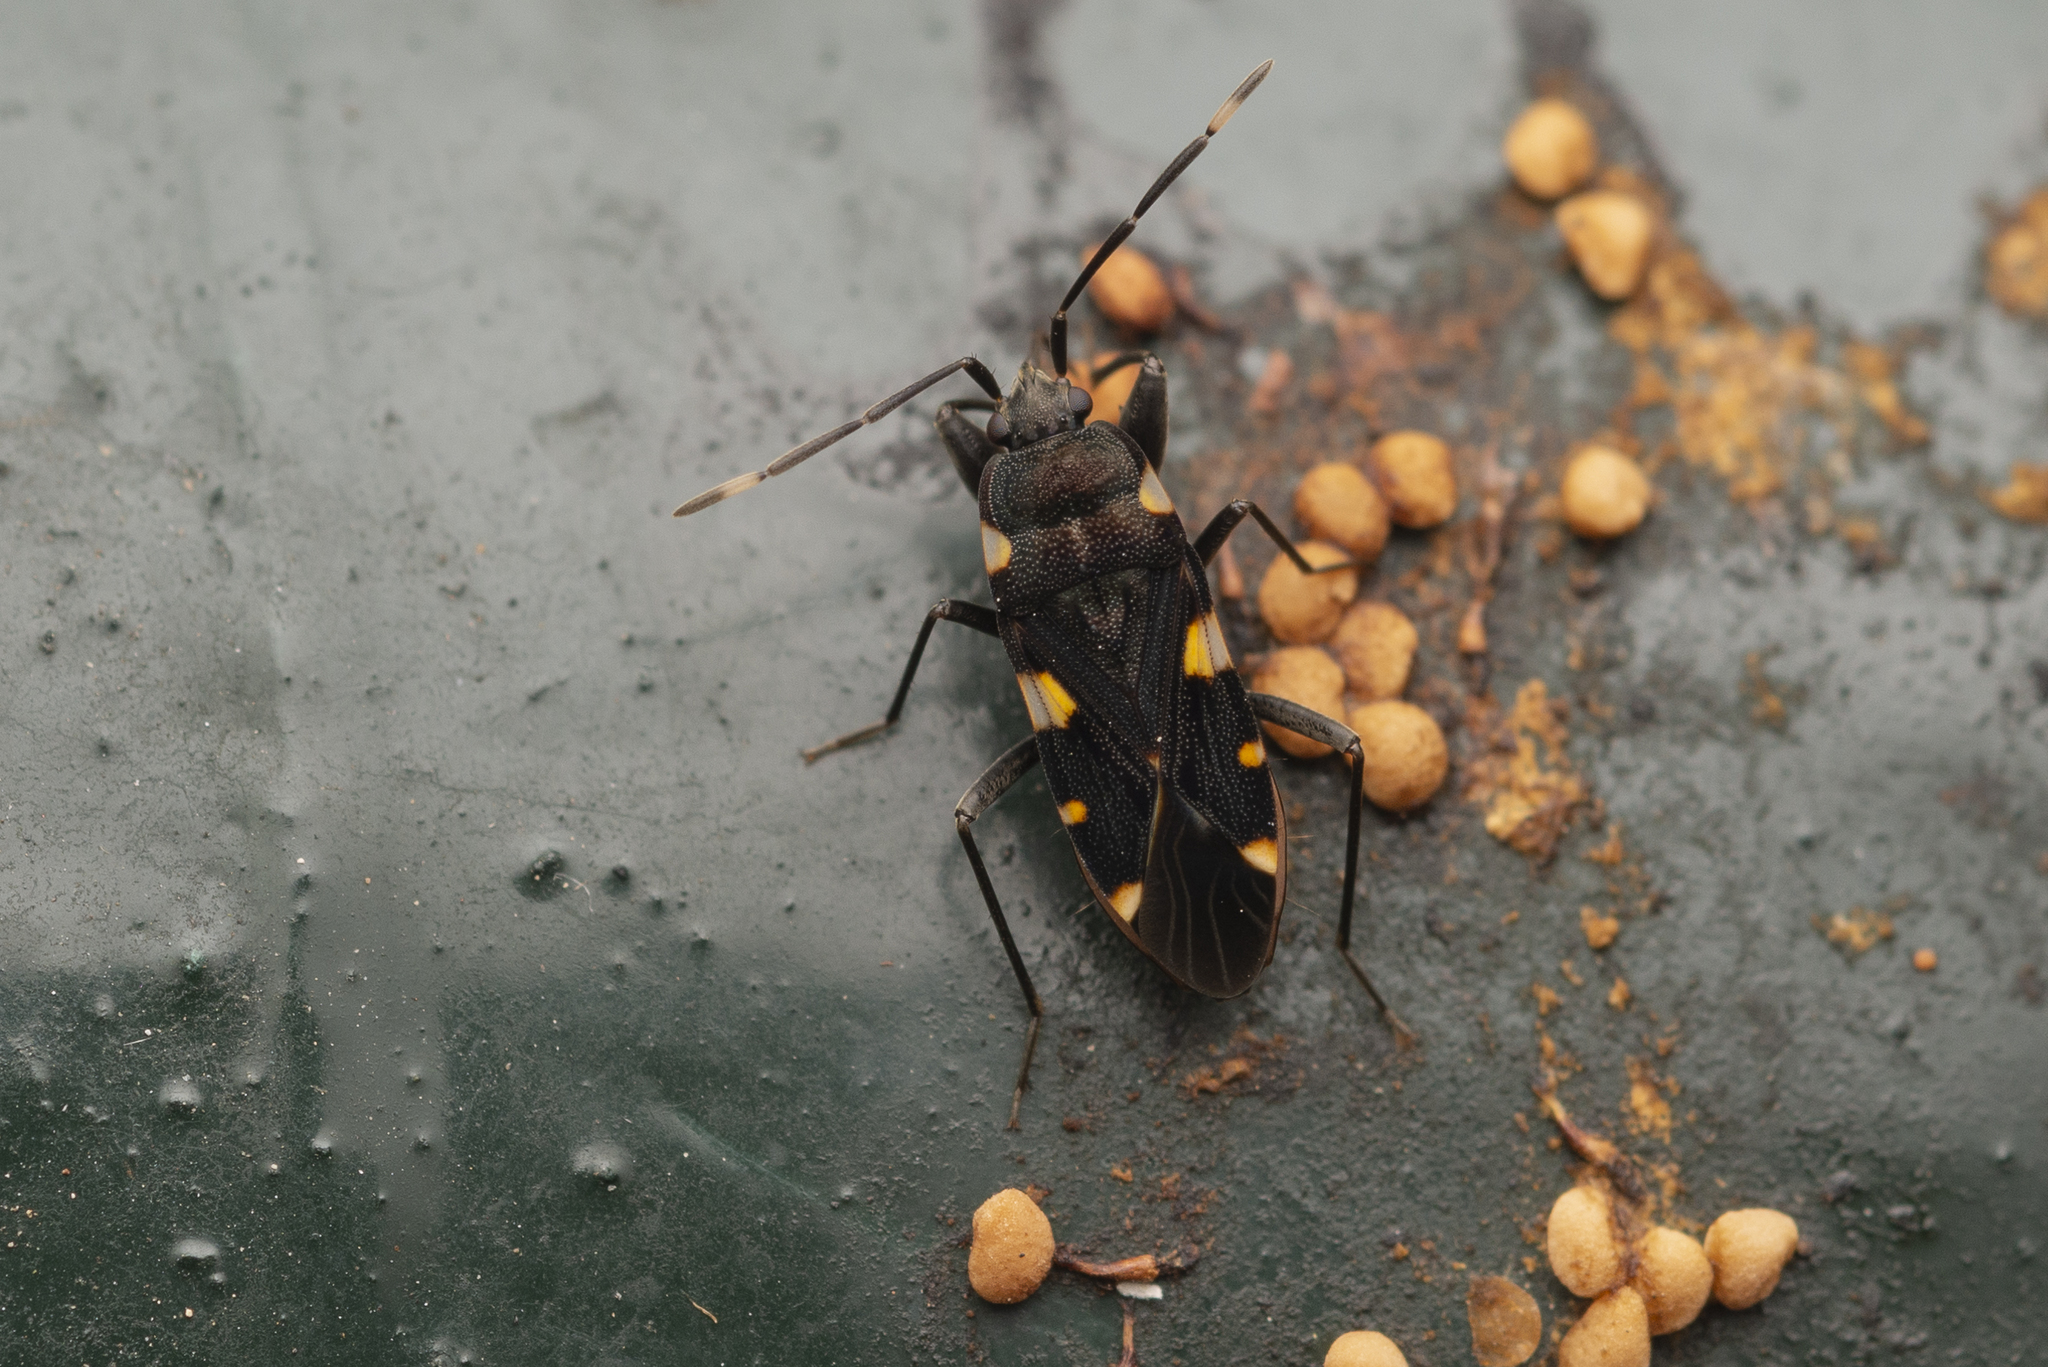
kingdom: Animalia
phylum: Arthropoda
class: Insecta
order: Hemiptera
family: Rhyparochromidae
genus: Potamiaena
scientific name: Potamiaena aurifera
